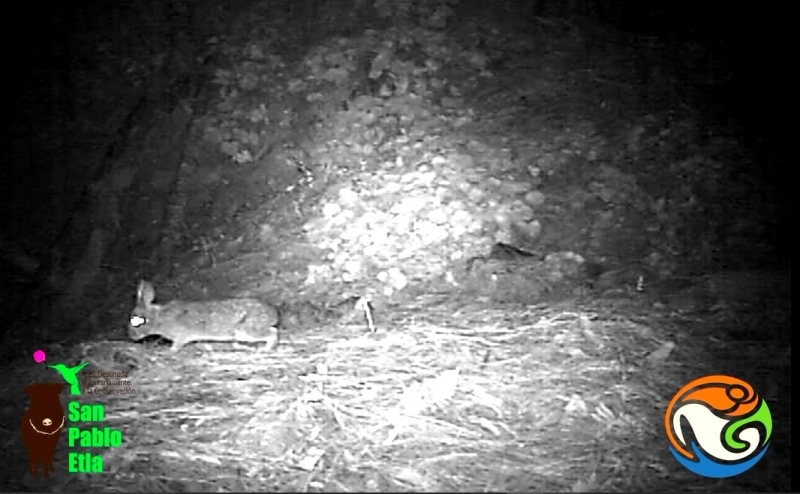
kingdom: Animalia
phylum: Chordata
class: Mammalia
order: Lagomorpha
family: Leporidae
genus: Sylvilagus
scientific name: Sylvilagus floridanus
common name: Eastern cottontail
